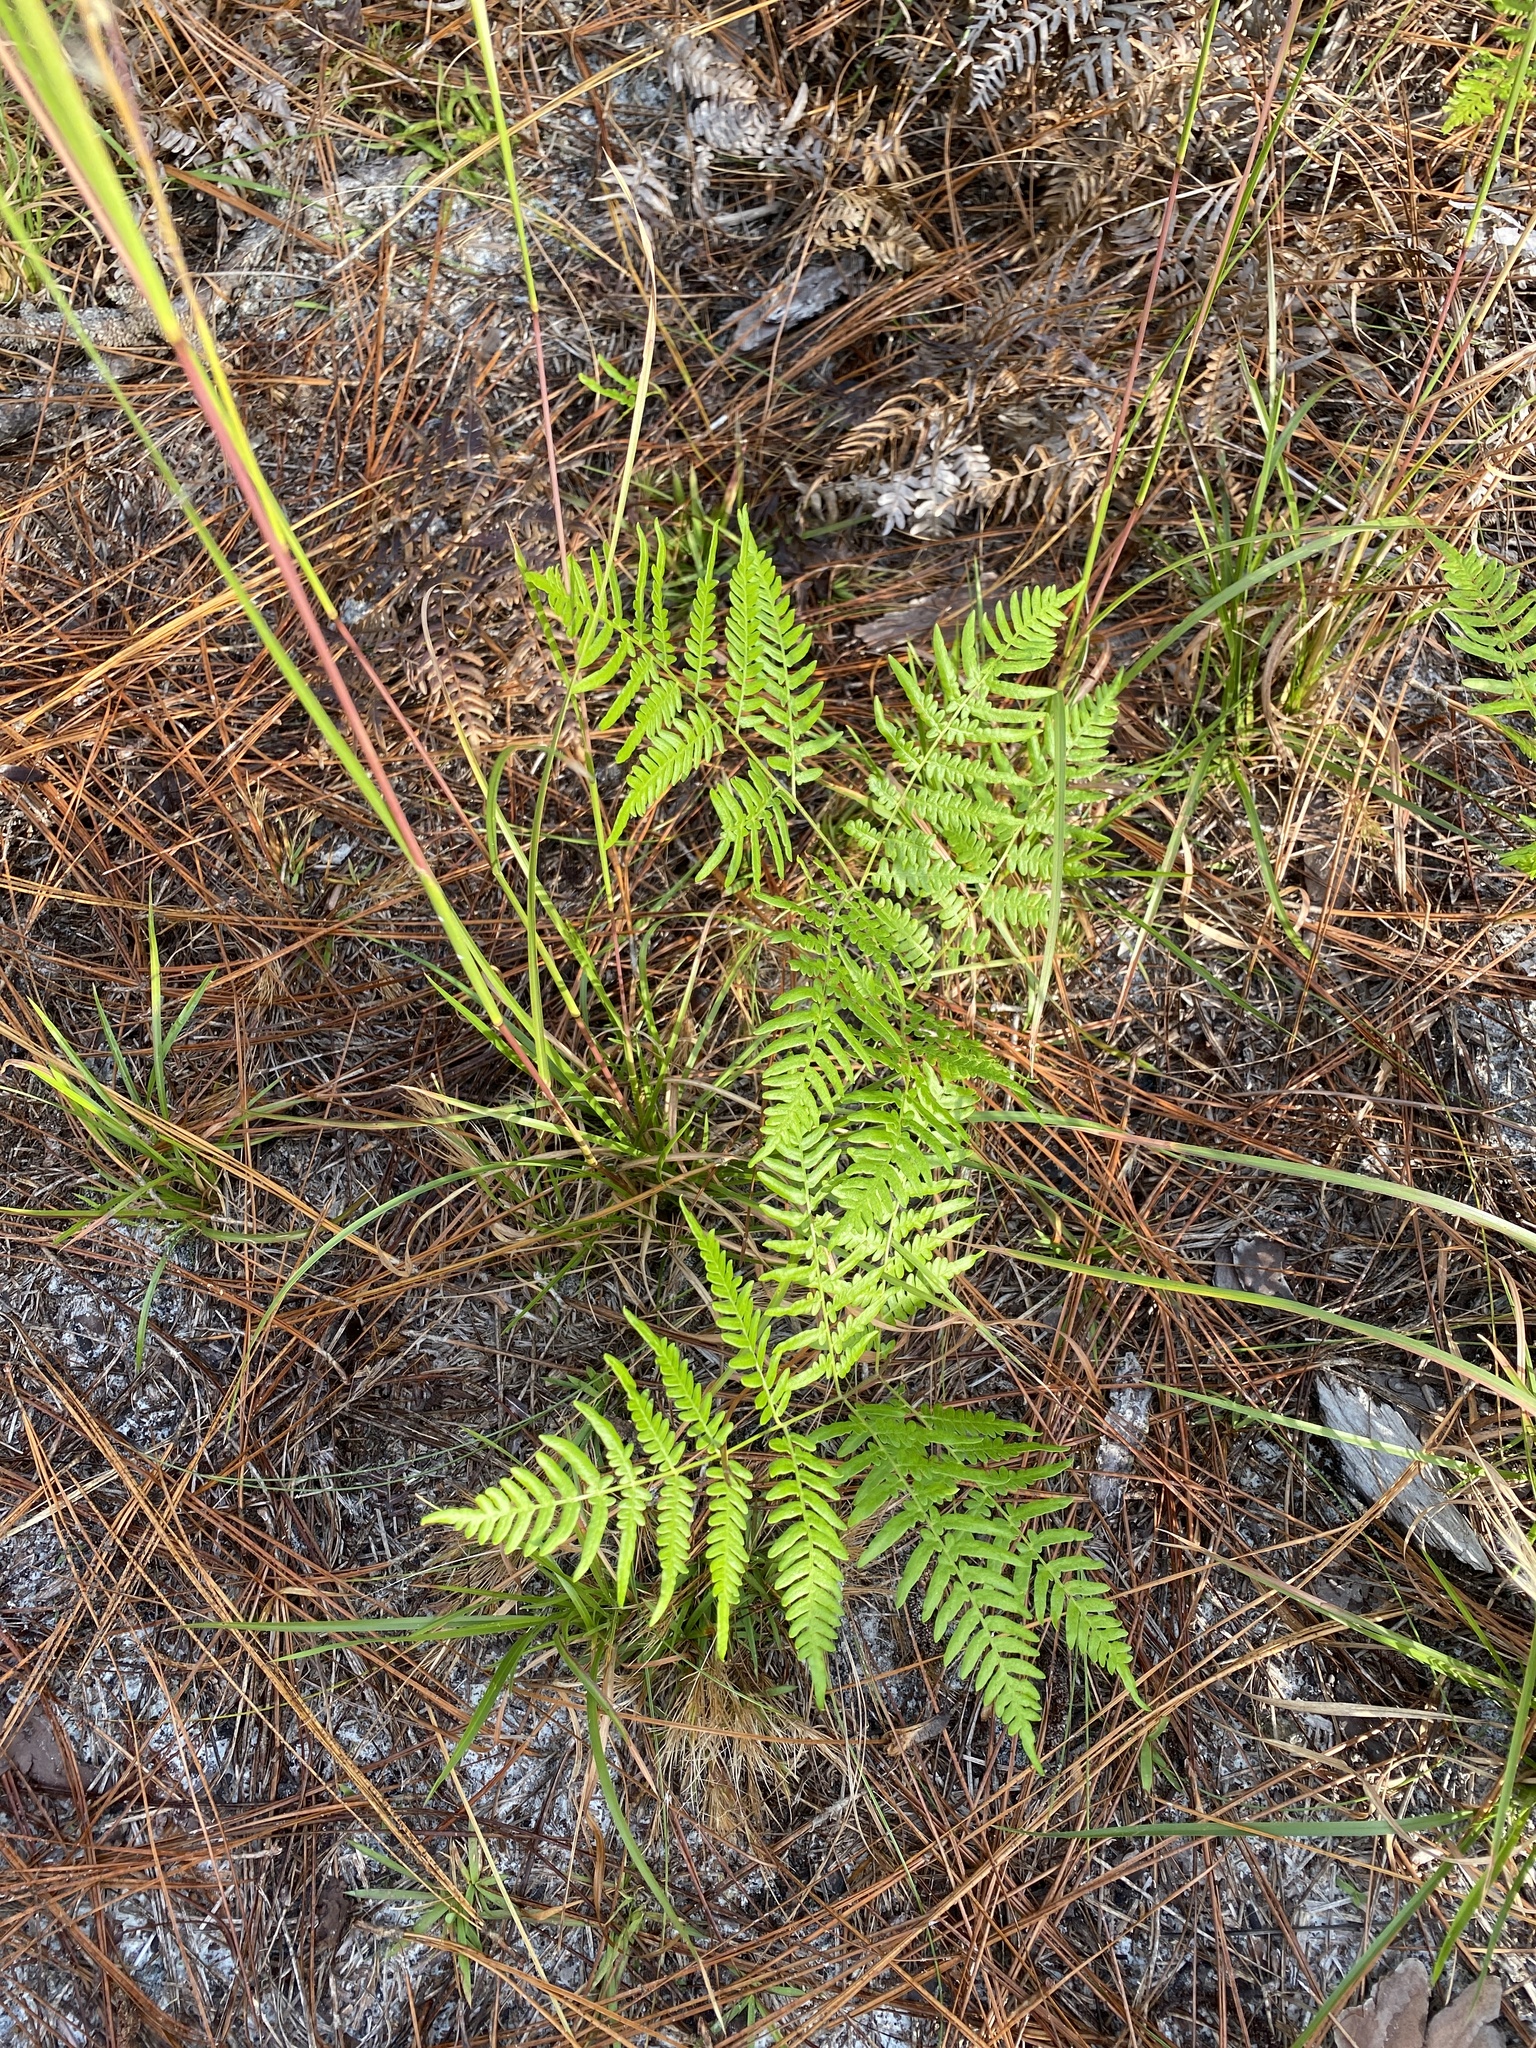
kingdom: Plantae
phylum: Tracheophyta
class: Polypodiopsida
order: Polypodiales
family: Dennstaedtiaceae
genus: Pteridium
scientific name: Pteridium
